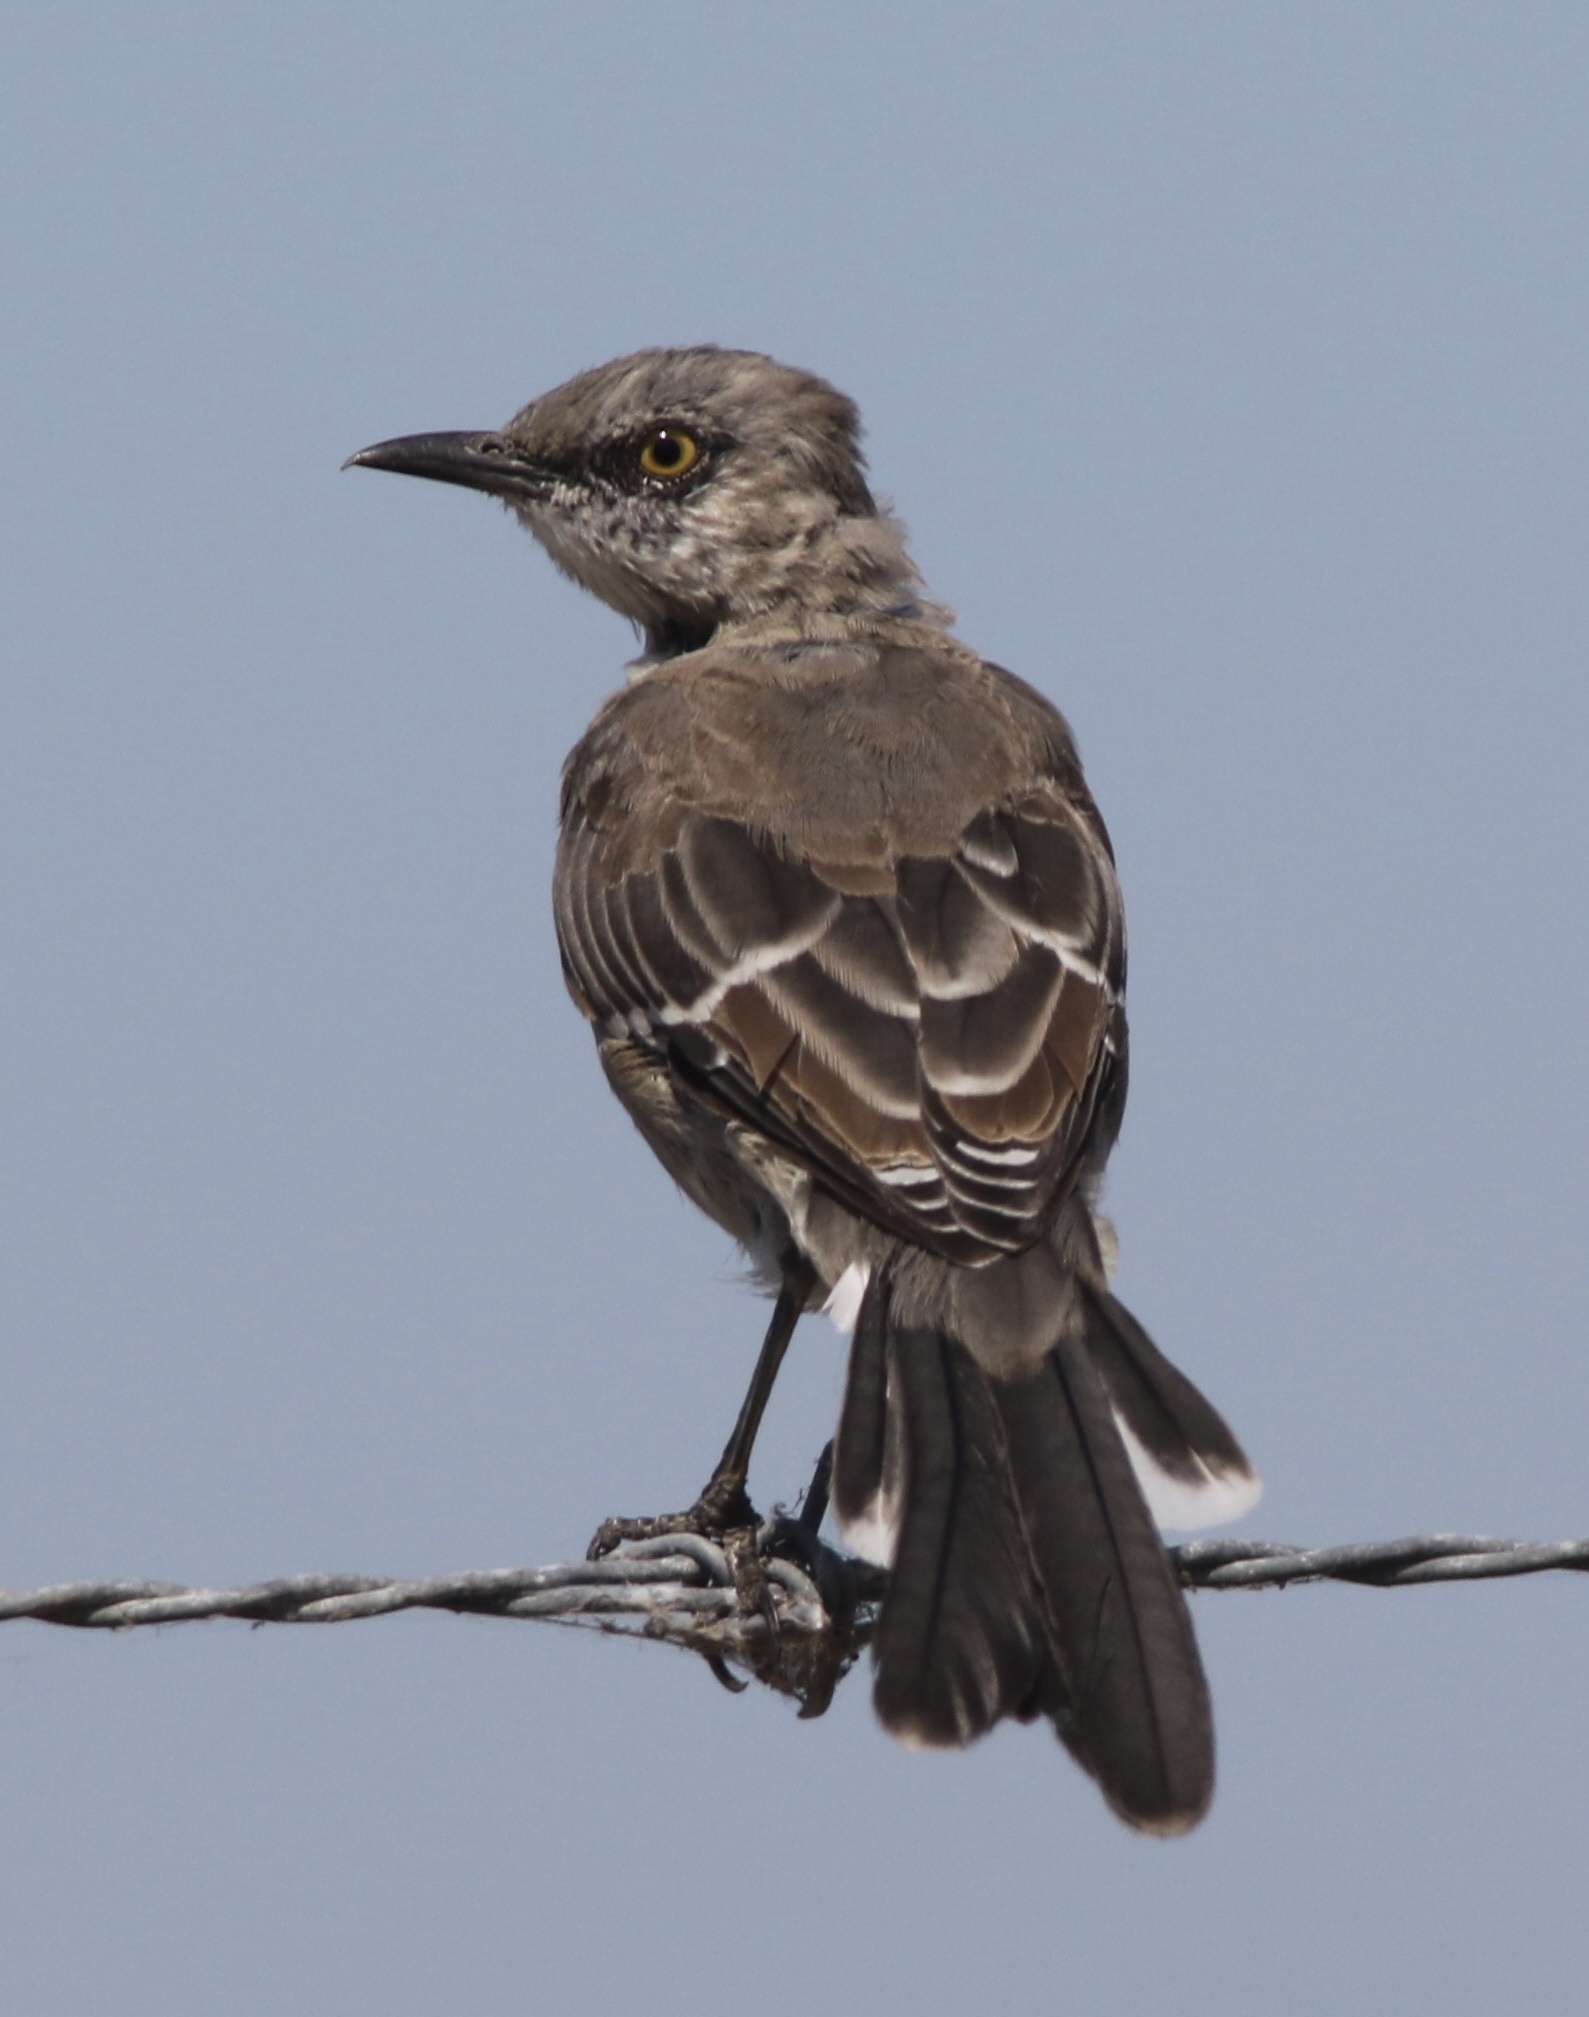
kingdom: Animalia
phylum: Chordata
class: Aves
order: Passeriformes
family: Mimidae
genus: Mimus
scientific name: Mimus polyglottos
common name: Northern mockingbird
